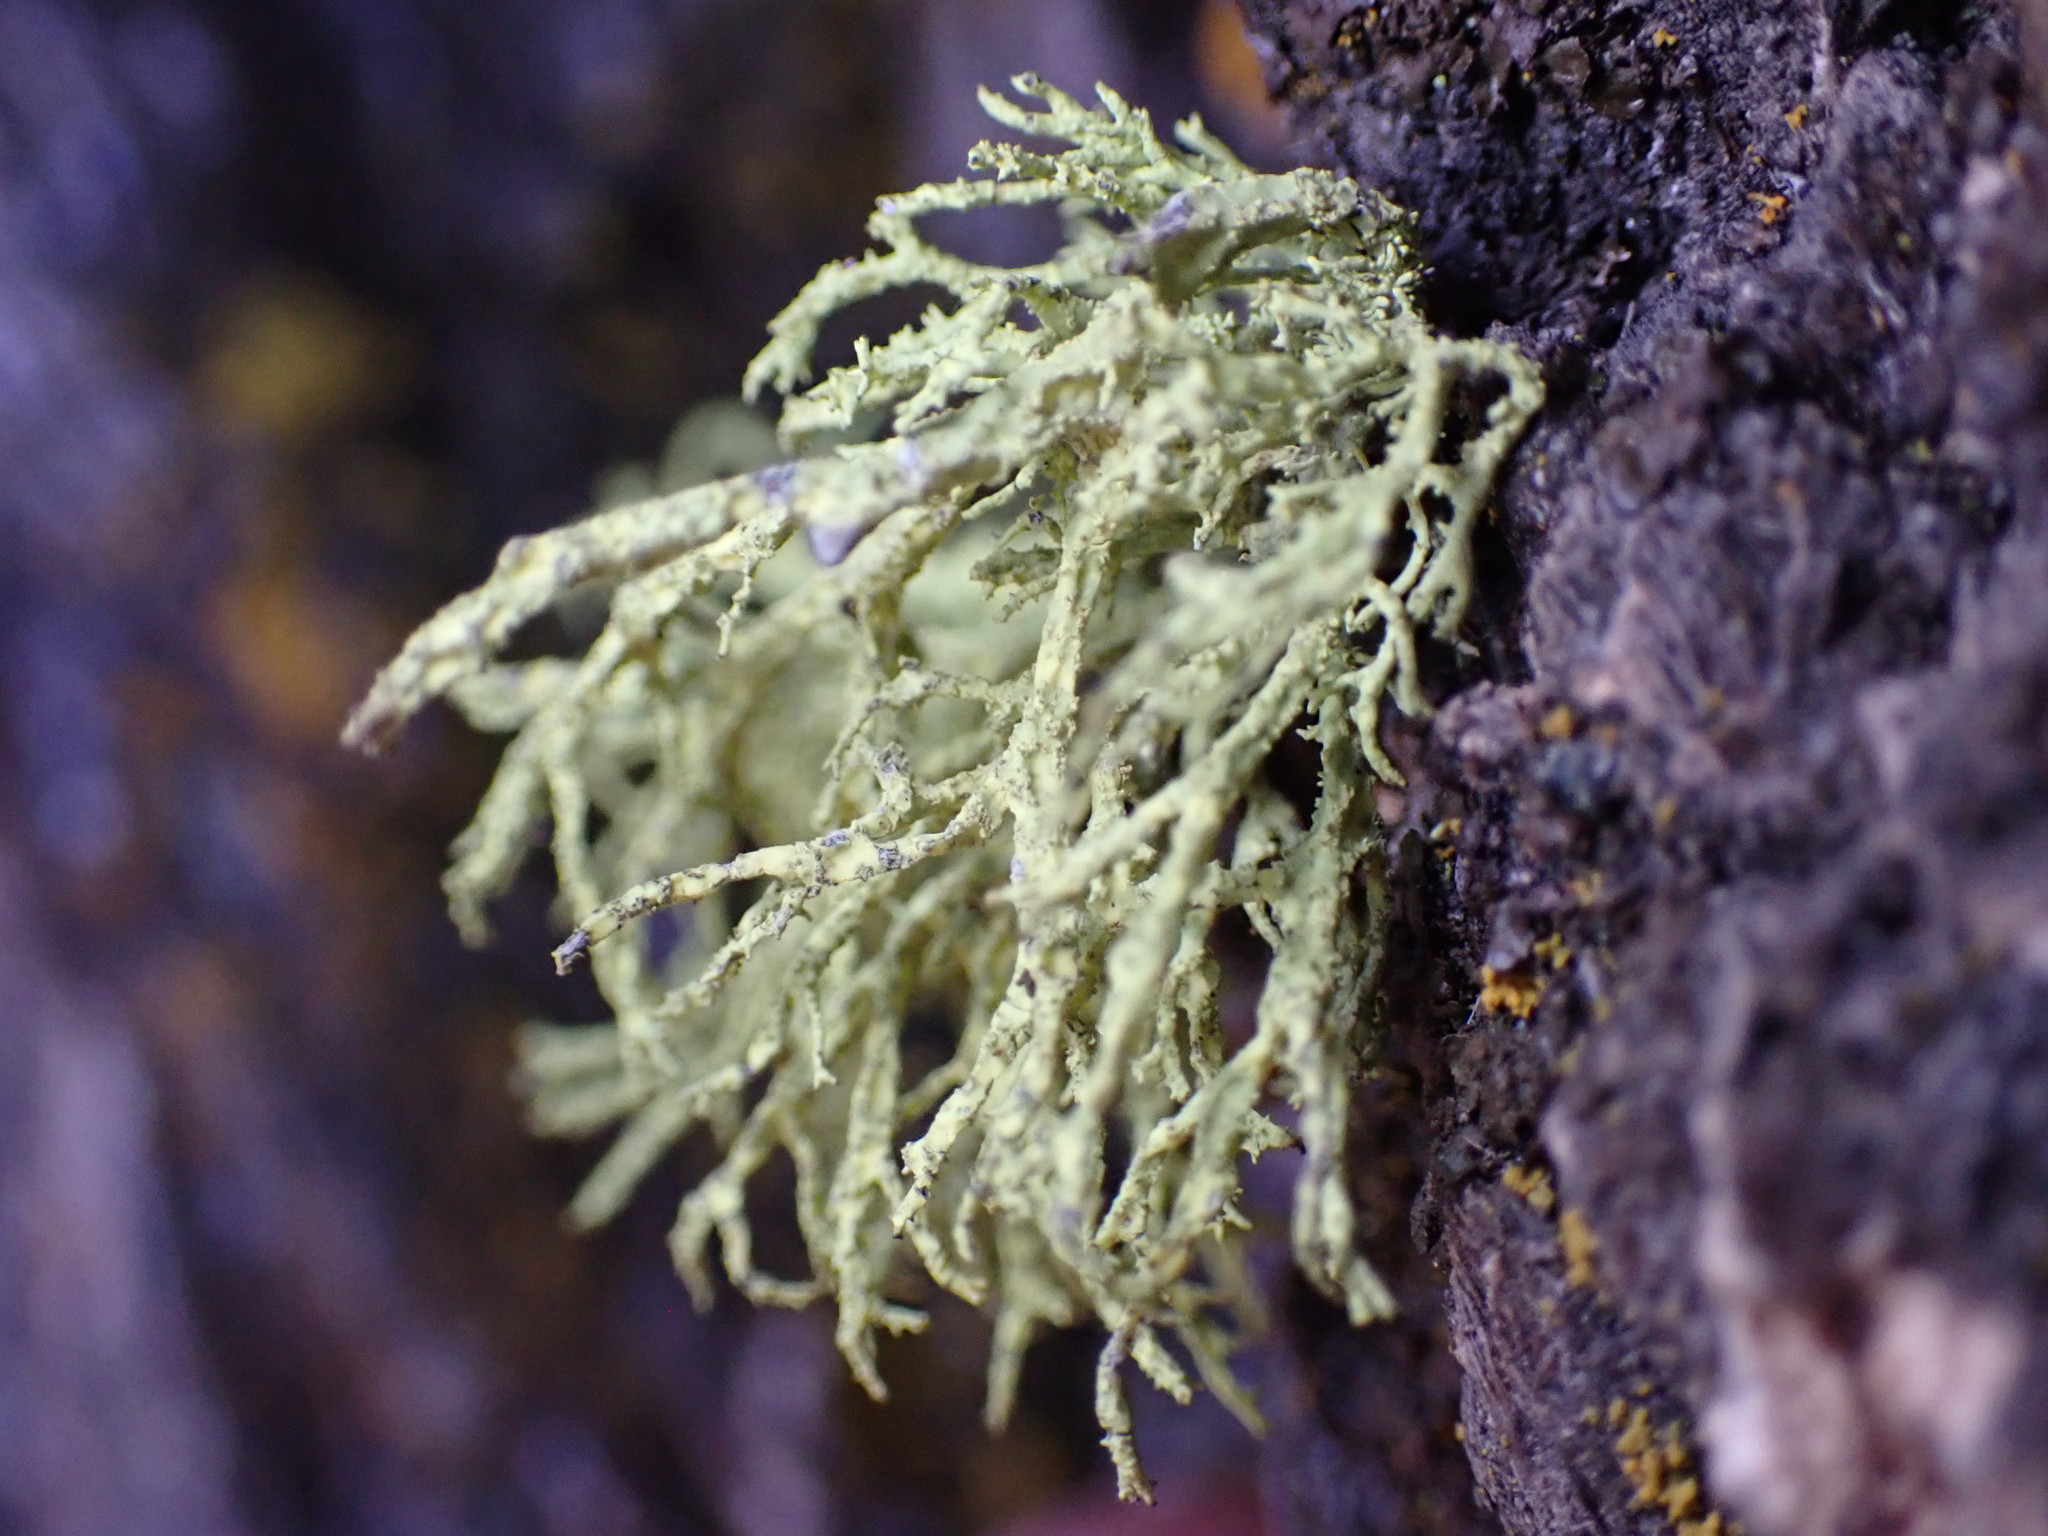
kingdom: Fungi
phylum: Ascomycota
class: Lecanoromycetes
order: Lecanorales
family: Parmeliaceae
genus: Letharia
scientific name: Letharia vulpina
